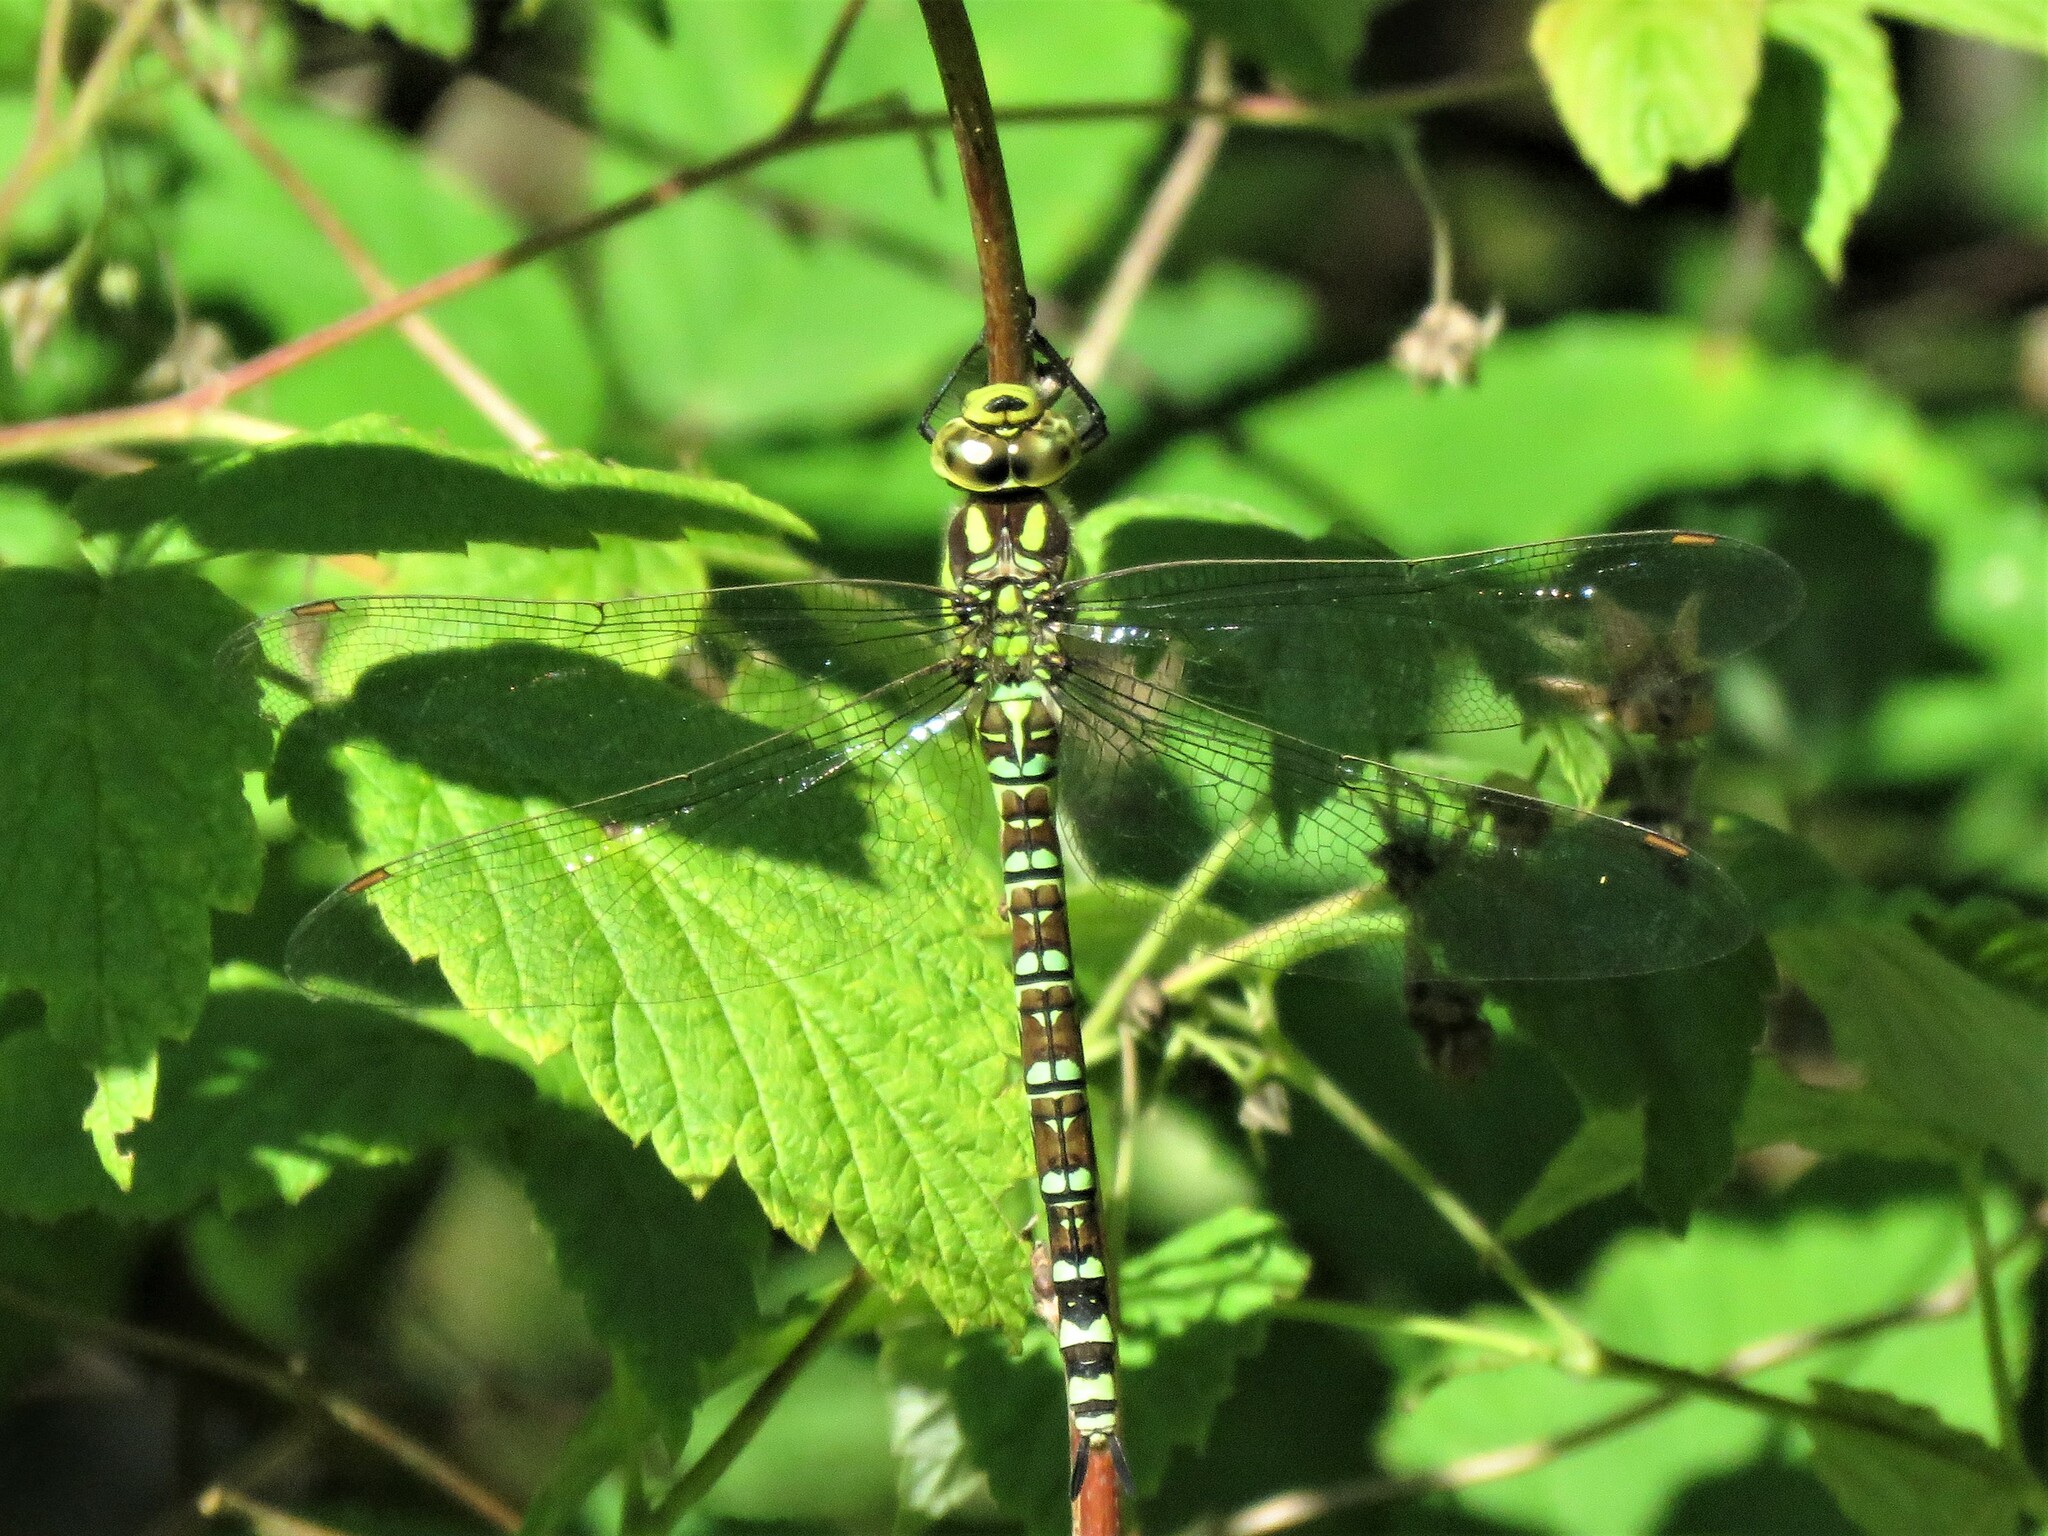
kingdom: Animalia
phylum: Arthropoda
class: Insecta
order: Odonata
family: Aeshnidae
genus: Aeshna
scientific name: Aeshna cyanea
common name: Southern hawker
